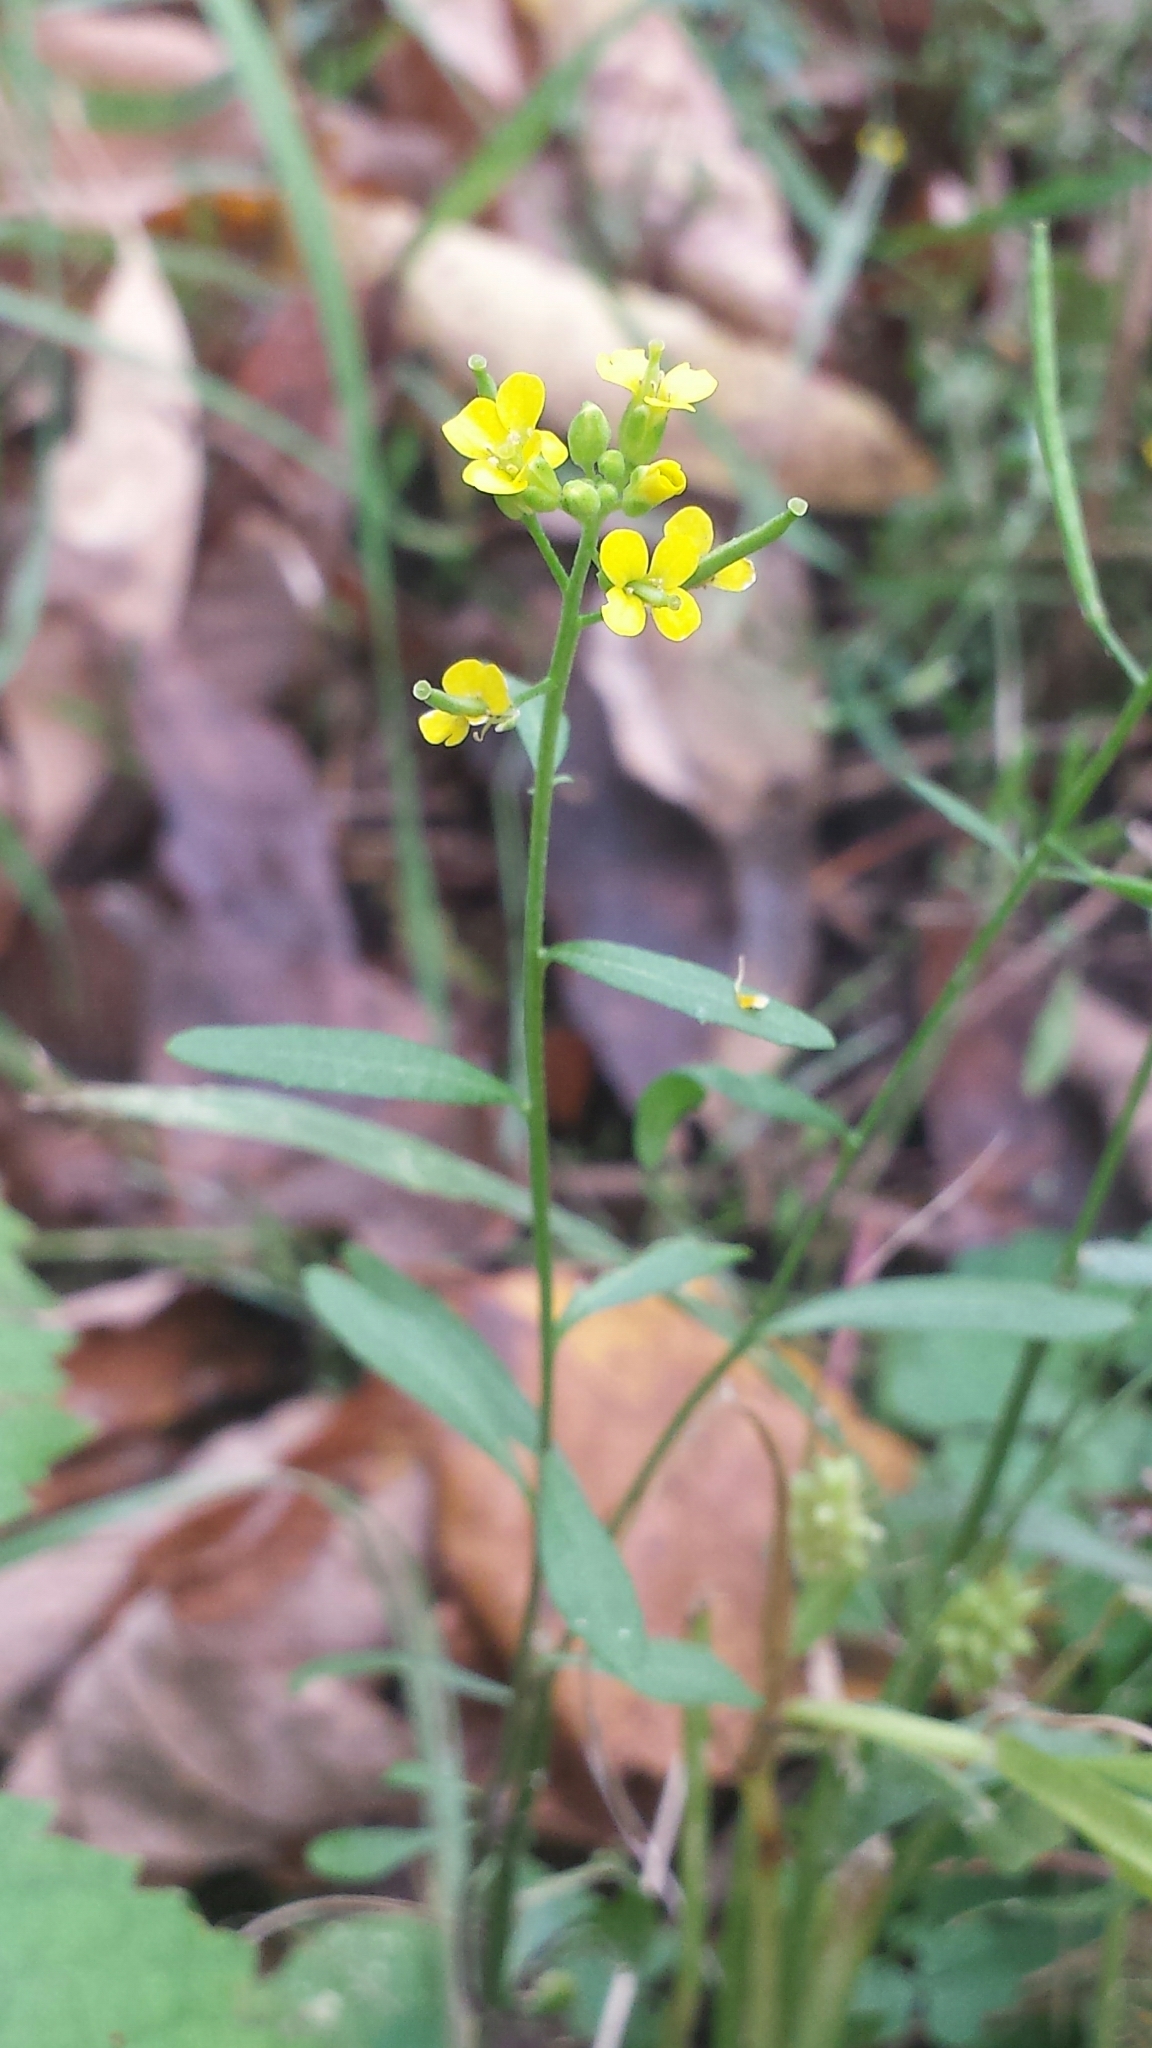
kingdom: Plantae
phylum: Tracheophyta
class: Magnoliopsida
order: Brassicales
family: Brassicaceae
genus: Erysimum
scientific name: Erysimum cheiranthoides
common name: Treacle mustard
